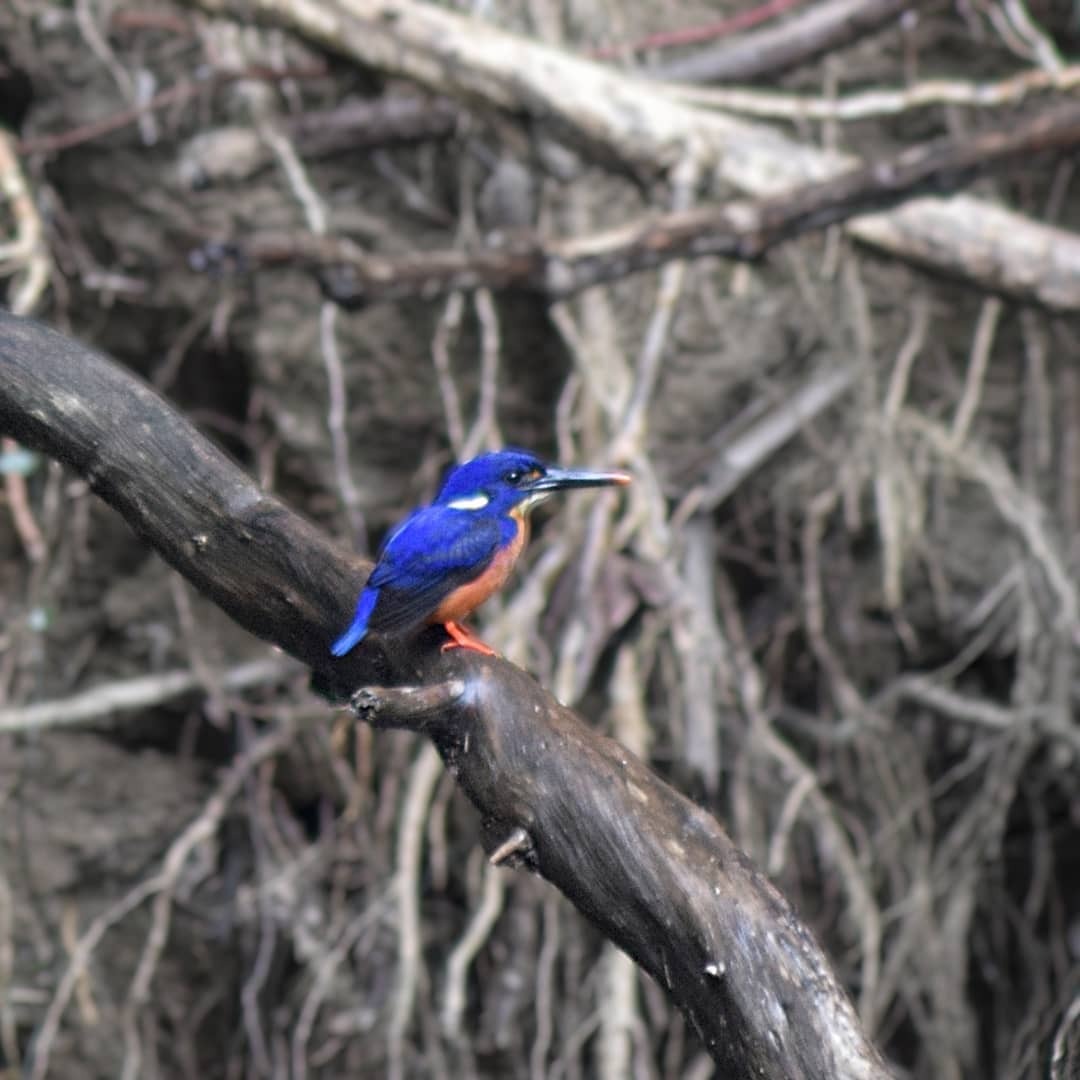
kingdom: Animalia
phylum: Chordata
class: Aves
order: Coraciiformes
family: Alcedinidae
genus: Ceyx
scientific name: Ceyx azureus
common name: Azure kingfisher
